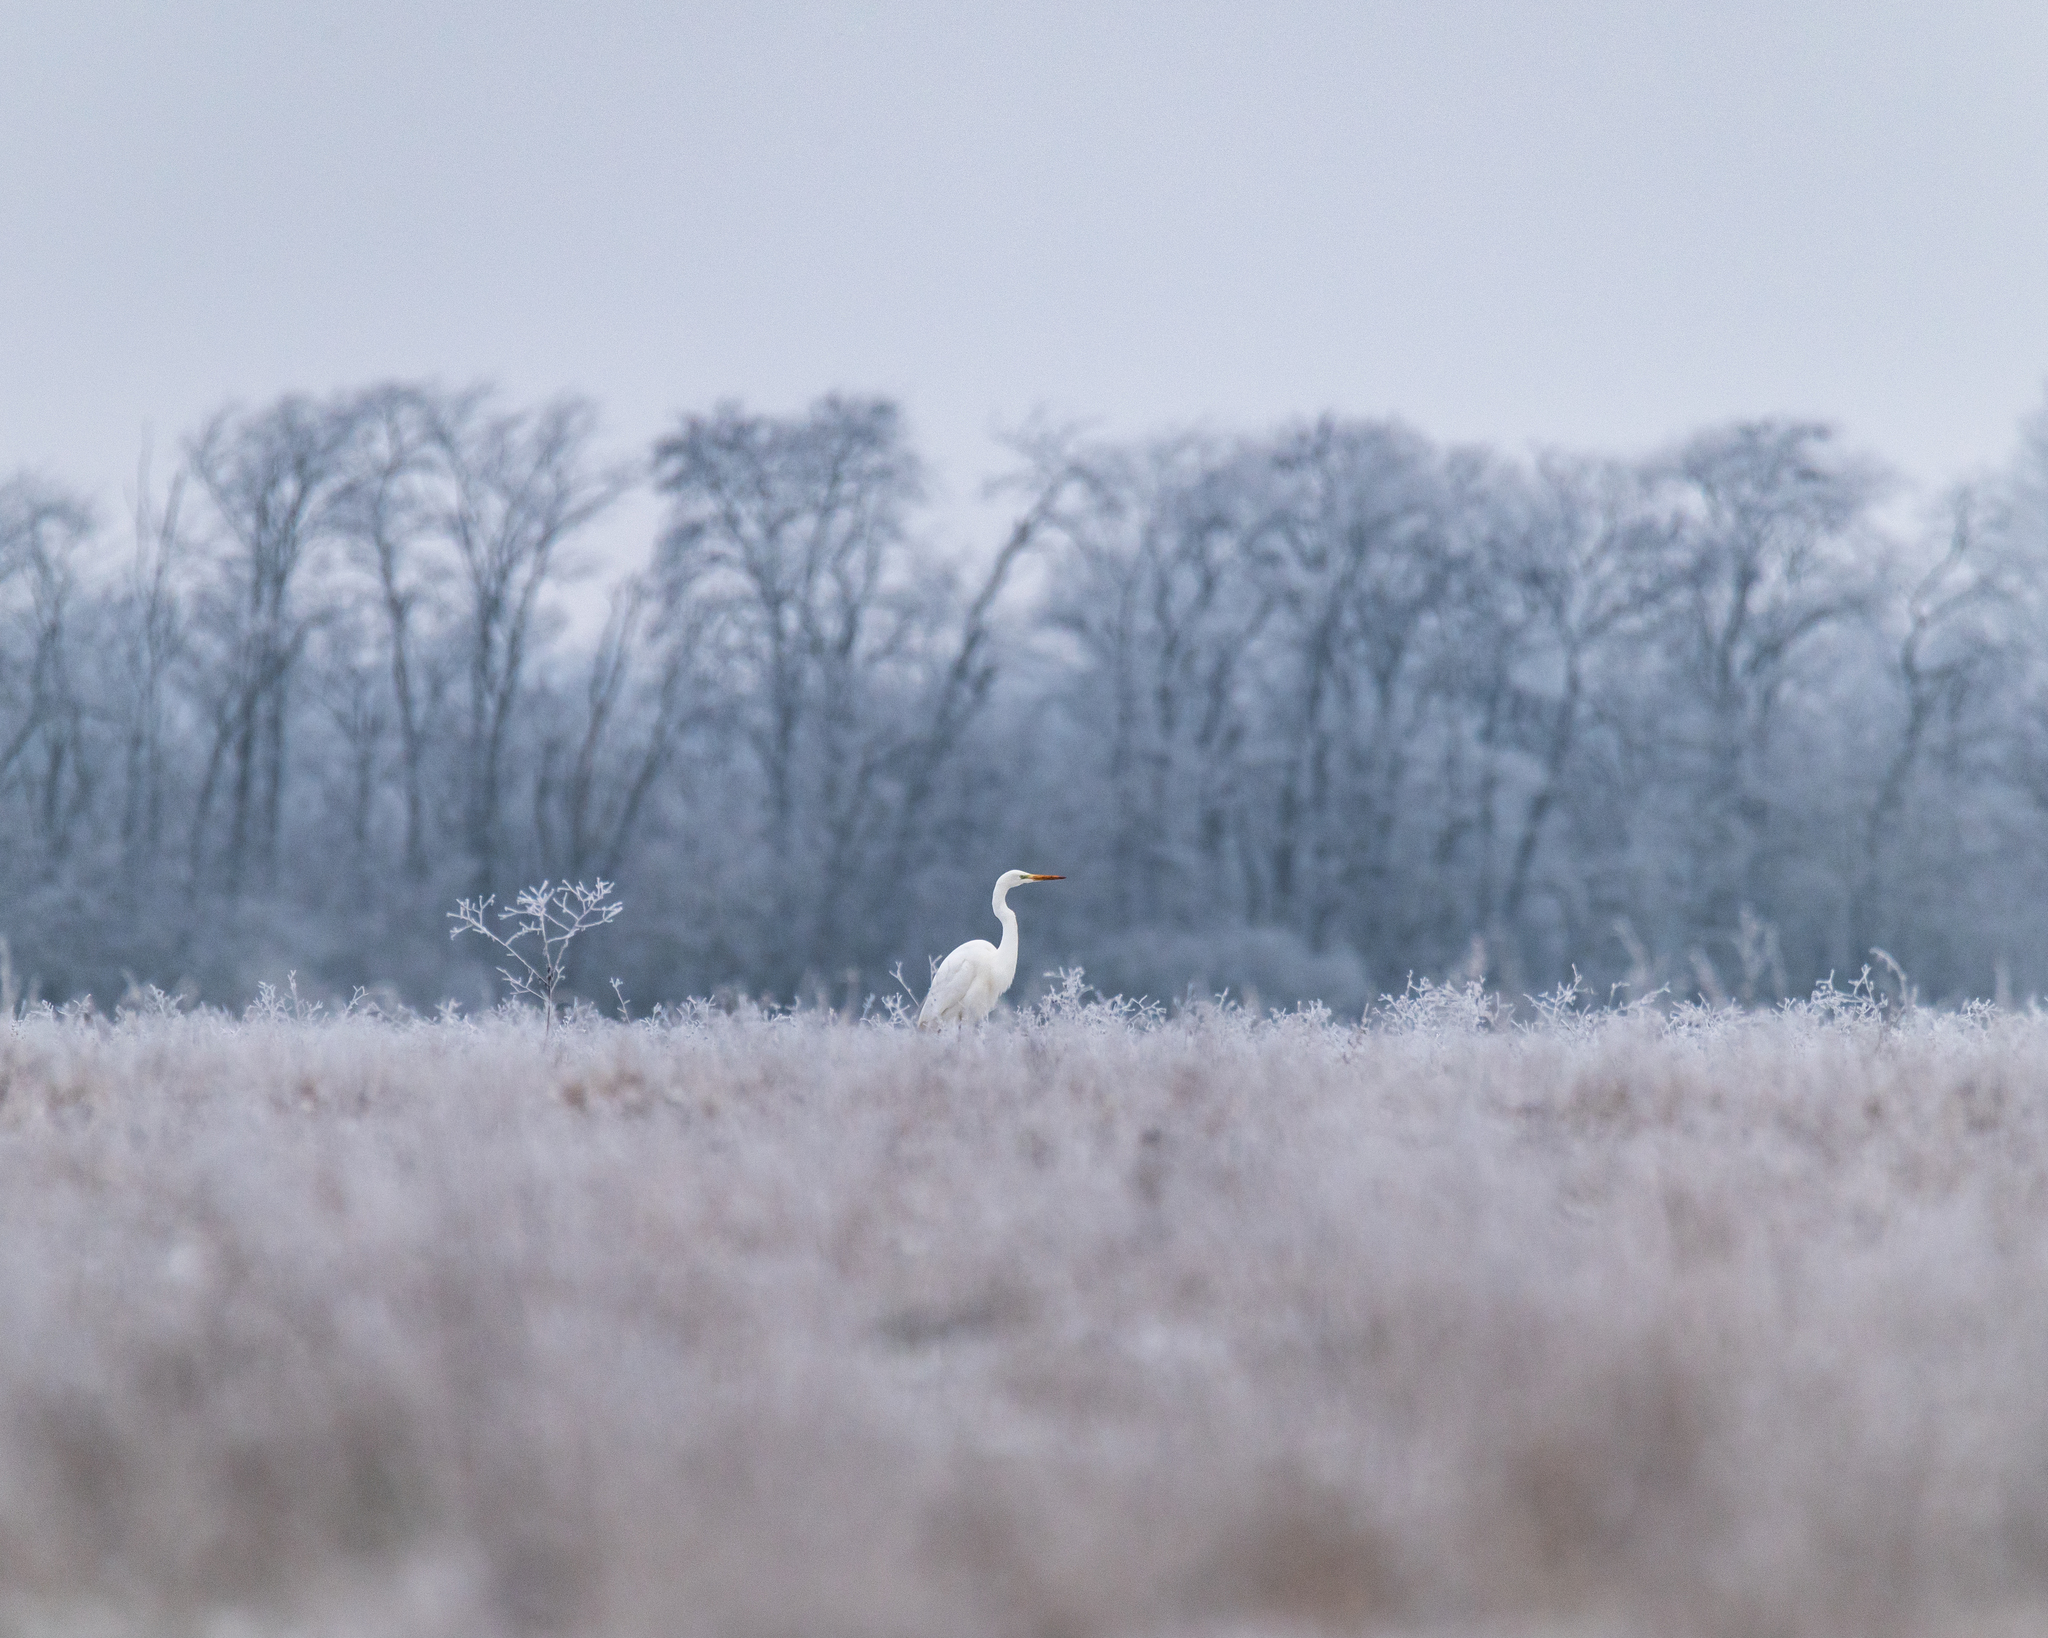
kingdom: Animalia
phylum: Chordata
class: Aves
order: Pelecaniformes
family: Ardeidae
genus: Ardea
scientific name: Ardea alba
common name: Great egret
